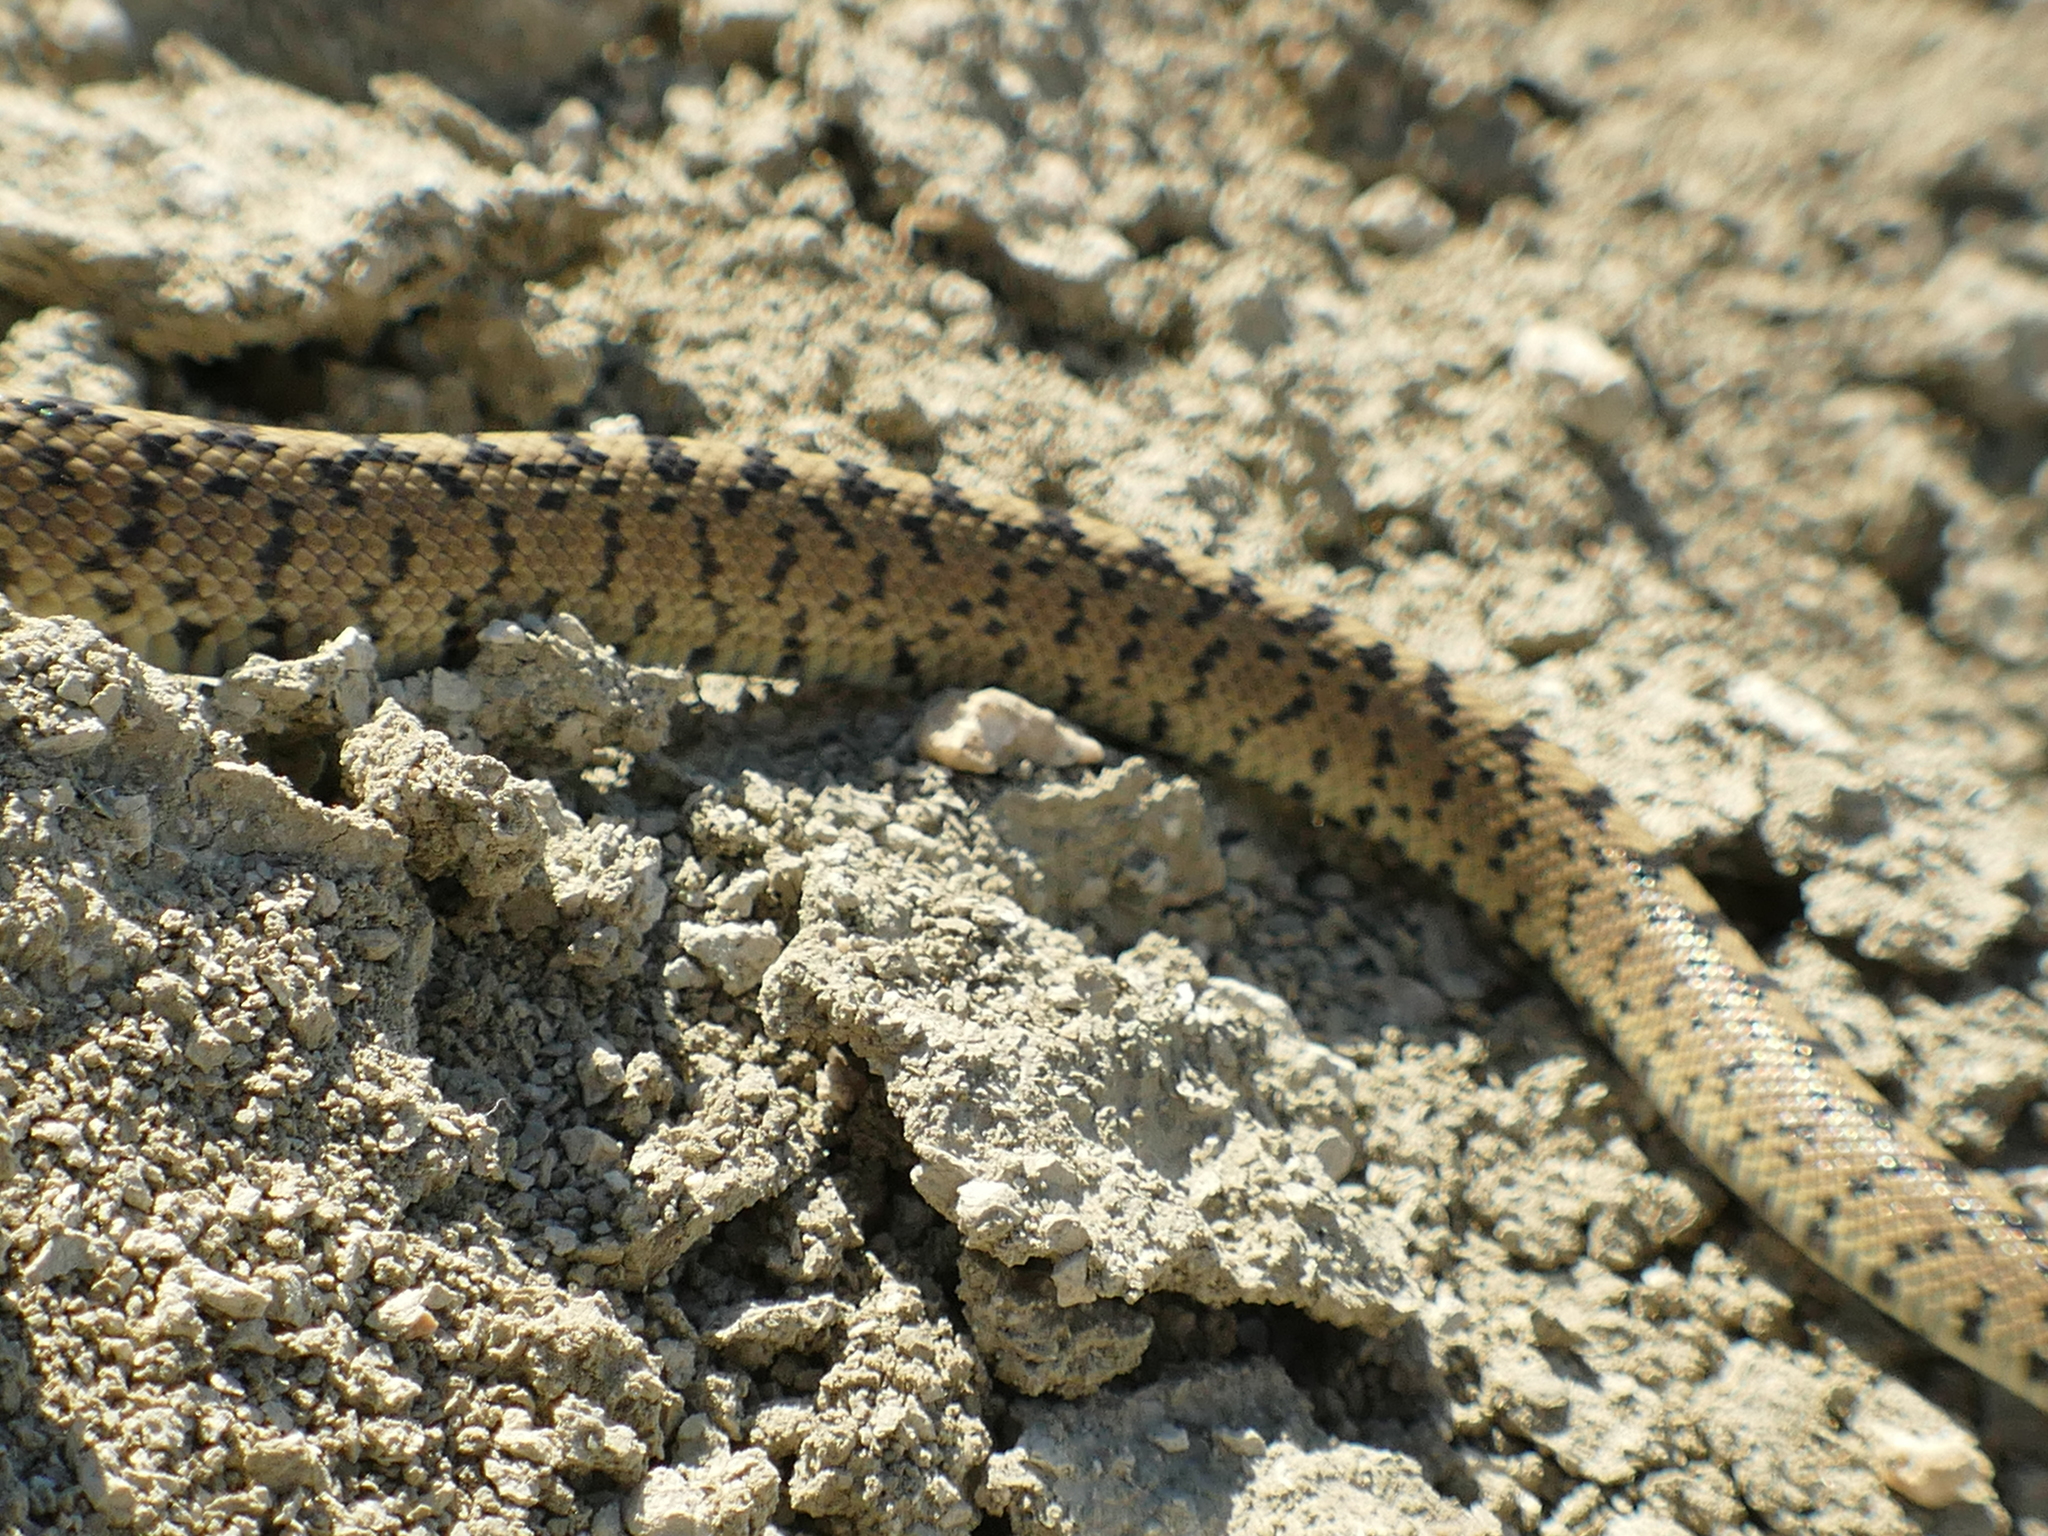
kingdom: Animalia
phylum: Chordata
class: Squamata
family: Colubridae
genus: Zamenis
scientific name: Zamenis scalaris
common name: Ladder snakes
